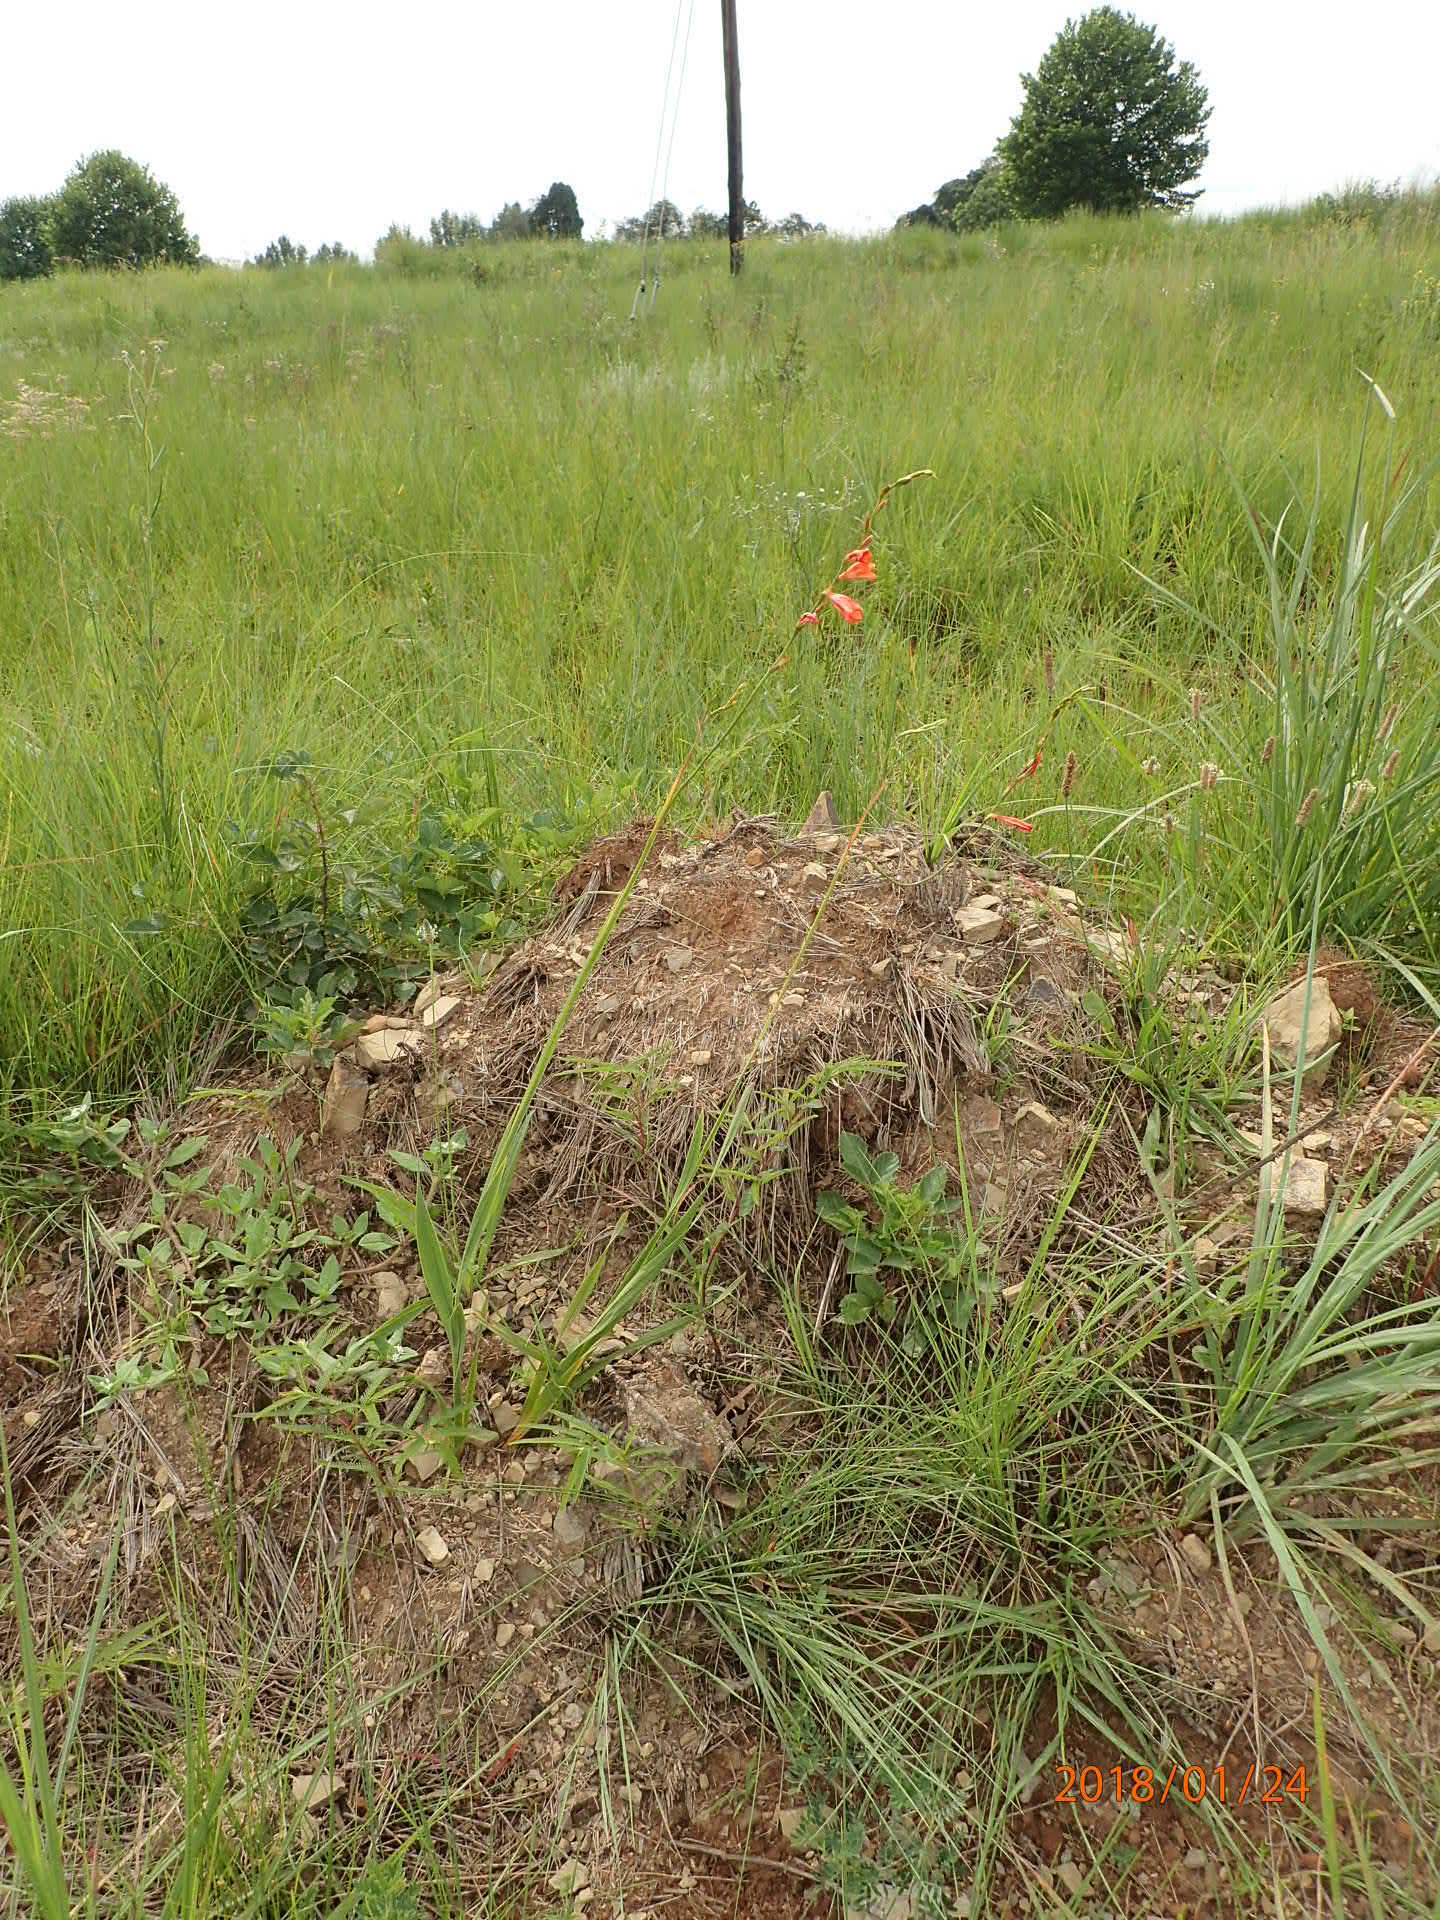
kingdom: Plantae
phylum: Tracheophyta
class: Liliopsida
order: Asparagales
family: Iridaceae
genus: Tritonia
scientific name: Tritonia disticha
